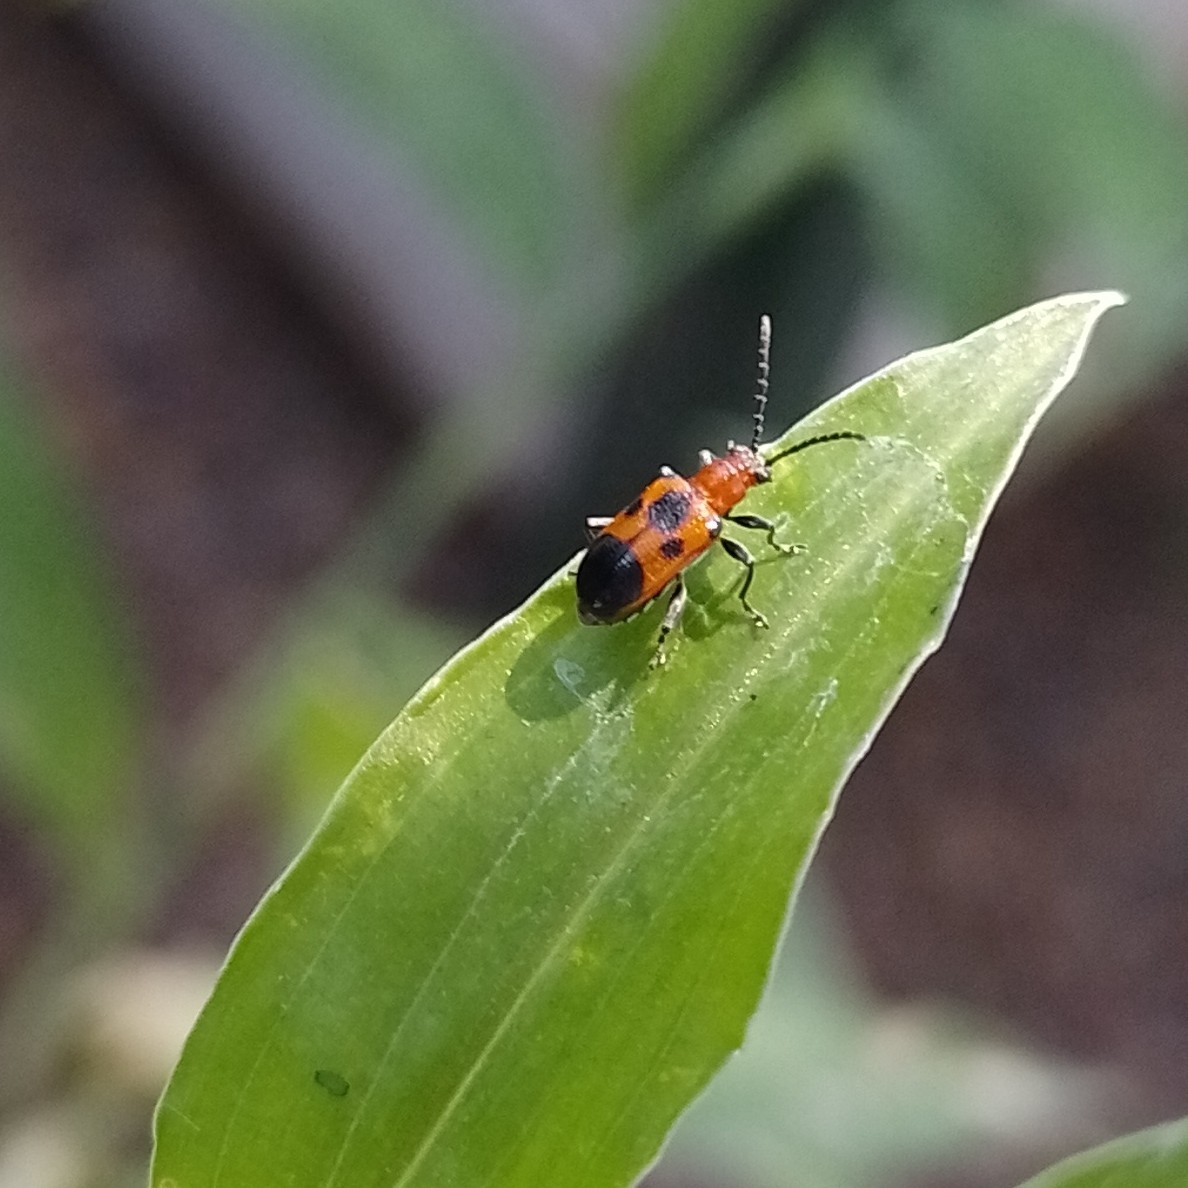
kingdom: Animalia
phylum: Arthropoda
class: Insecta
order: Coleoptera
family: Chrysomelidae
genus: Neolema
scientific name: Neolema dorsalis
